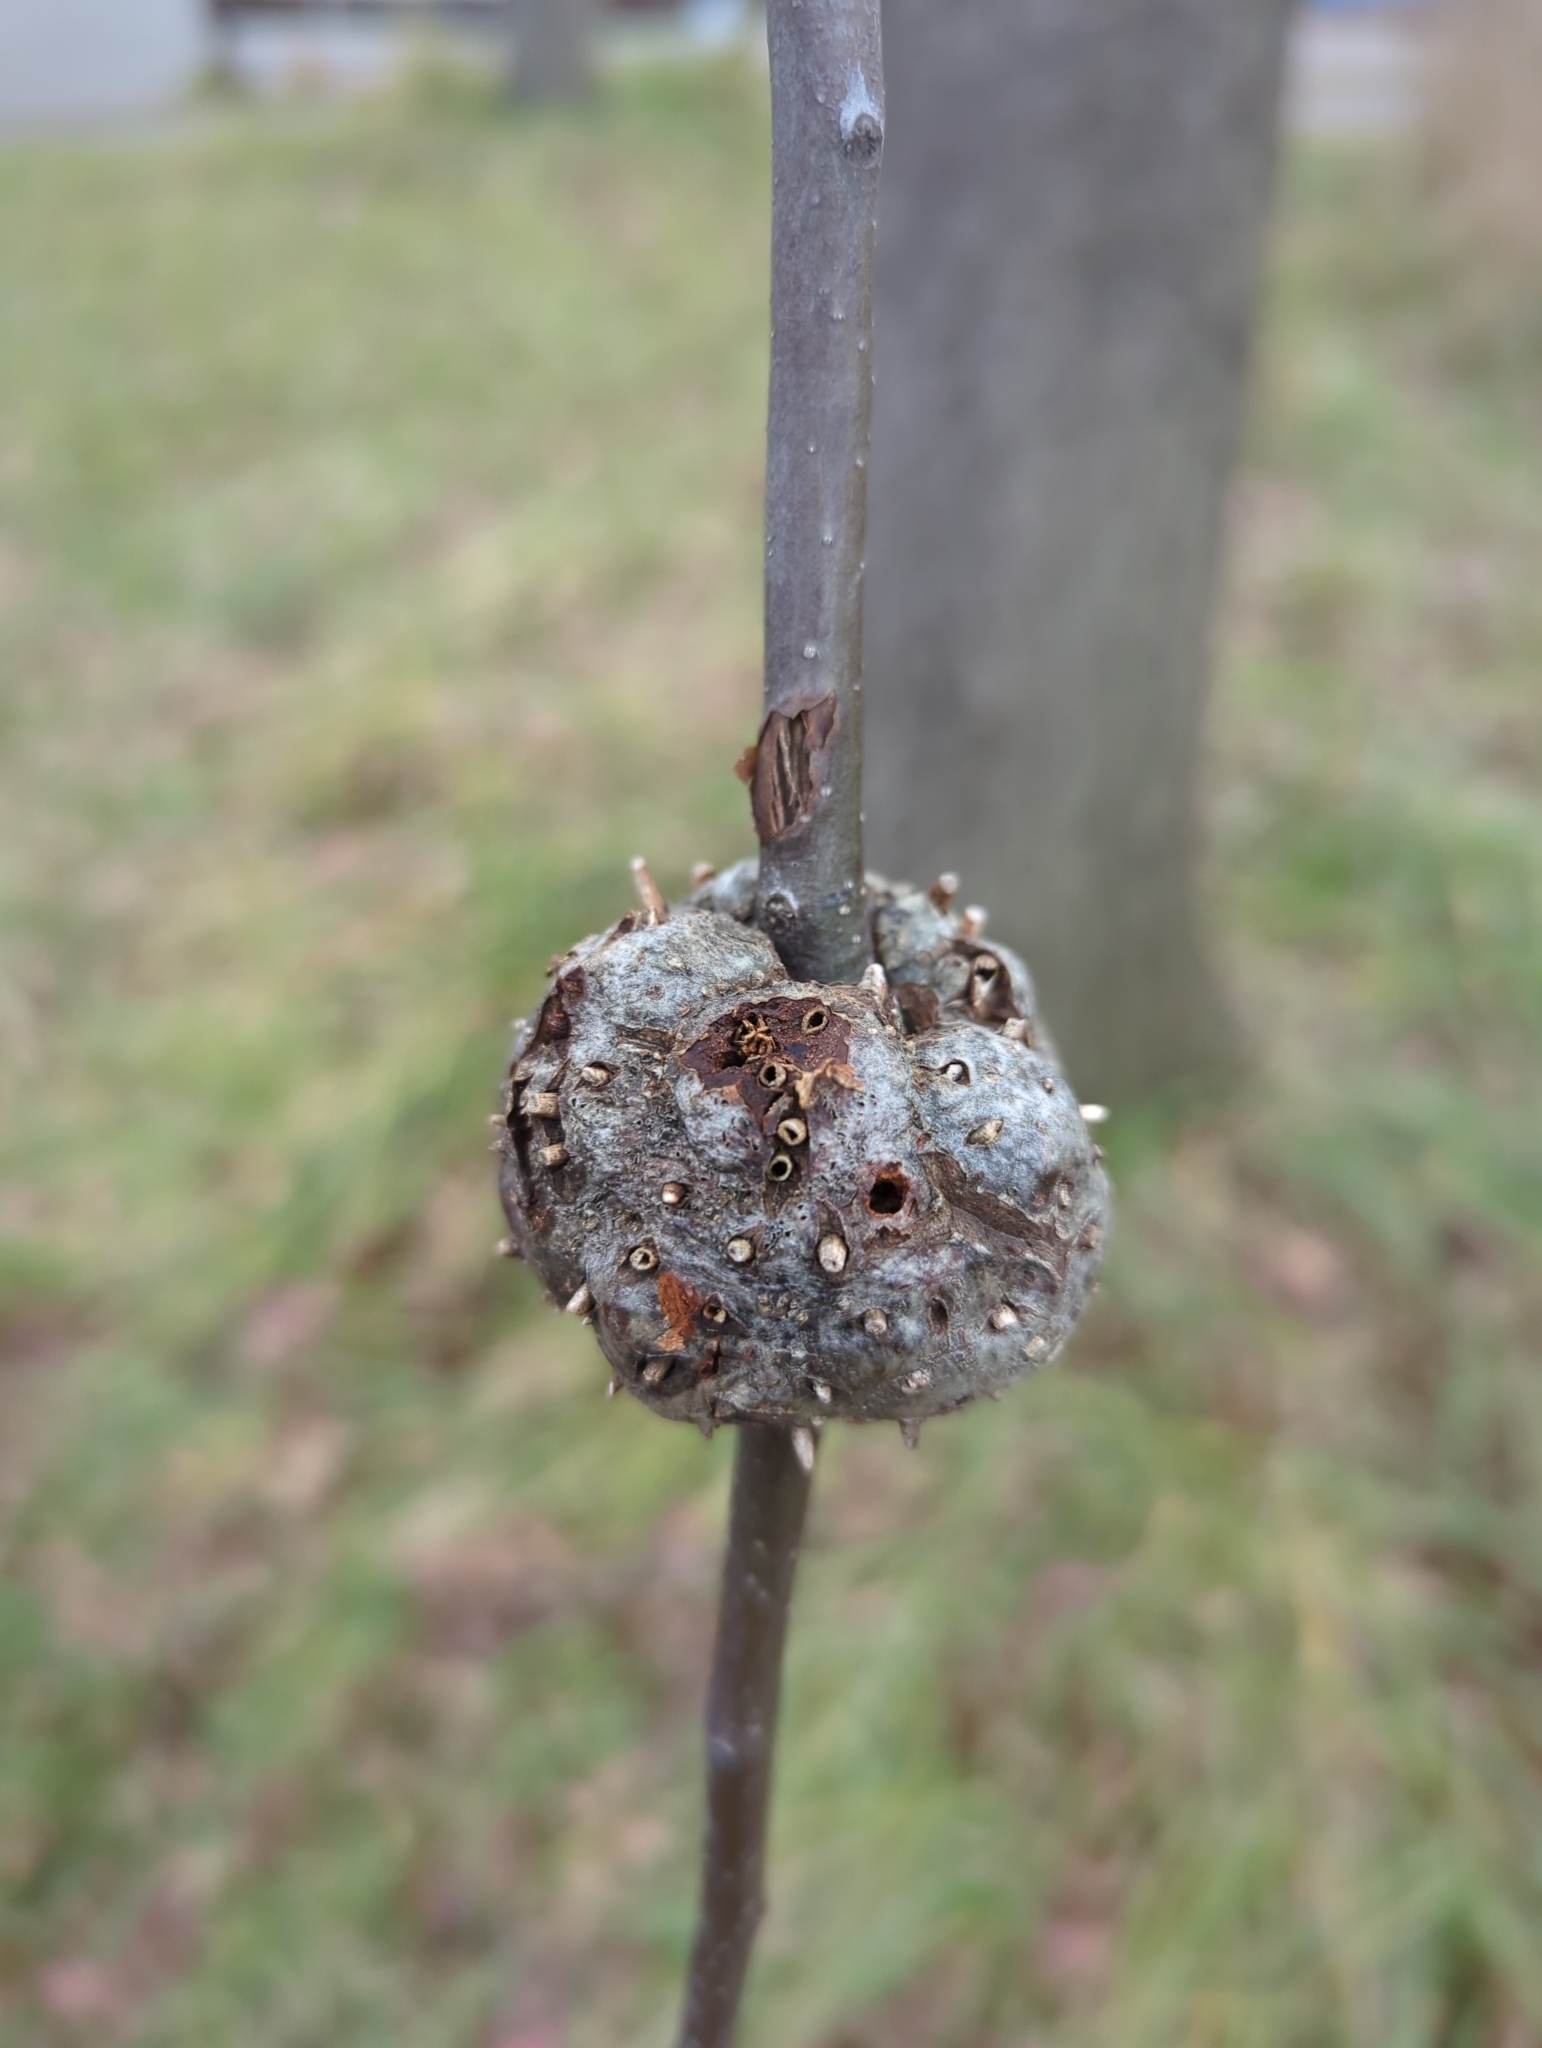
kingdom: Animalia
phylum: Arthropoda
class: Insecta
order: Hymenoptera
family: Cynipidae
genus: Callirhytis
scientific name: Callirhytis
